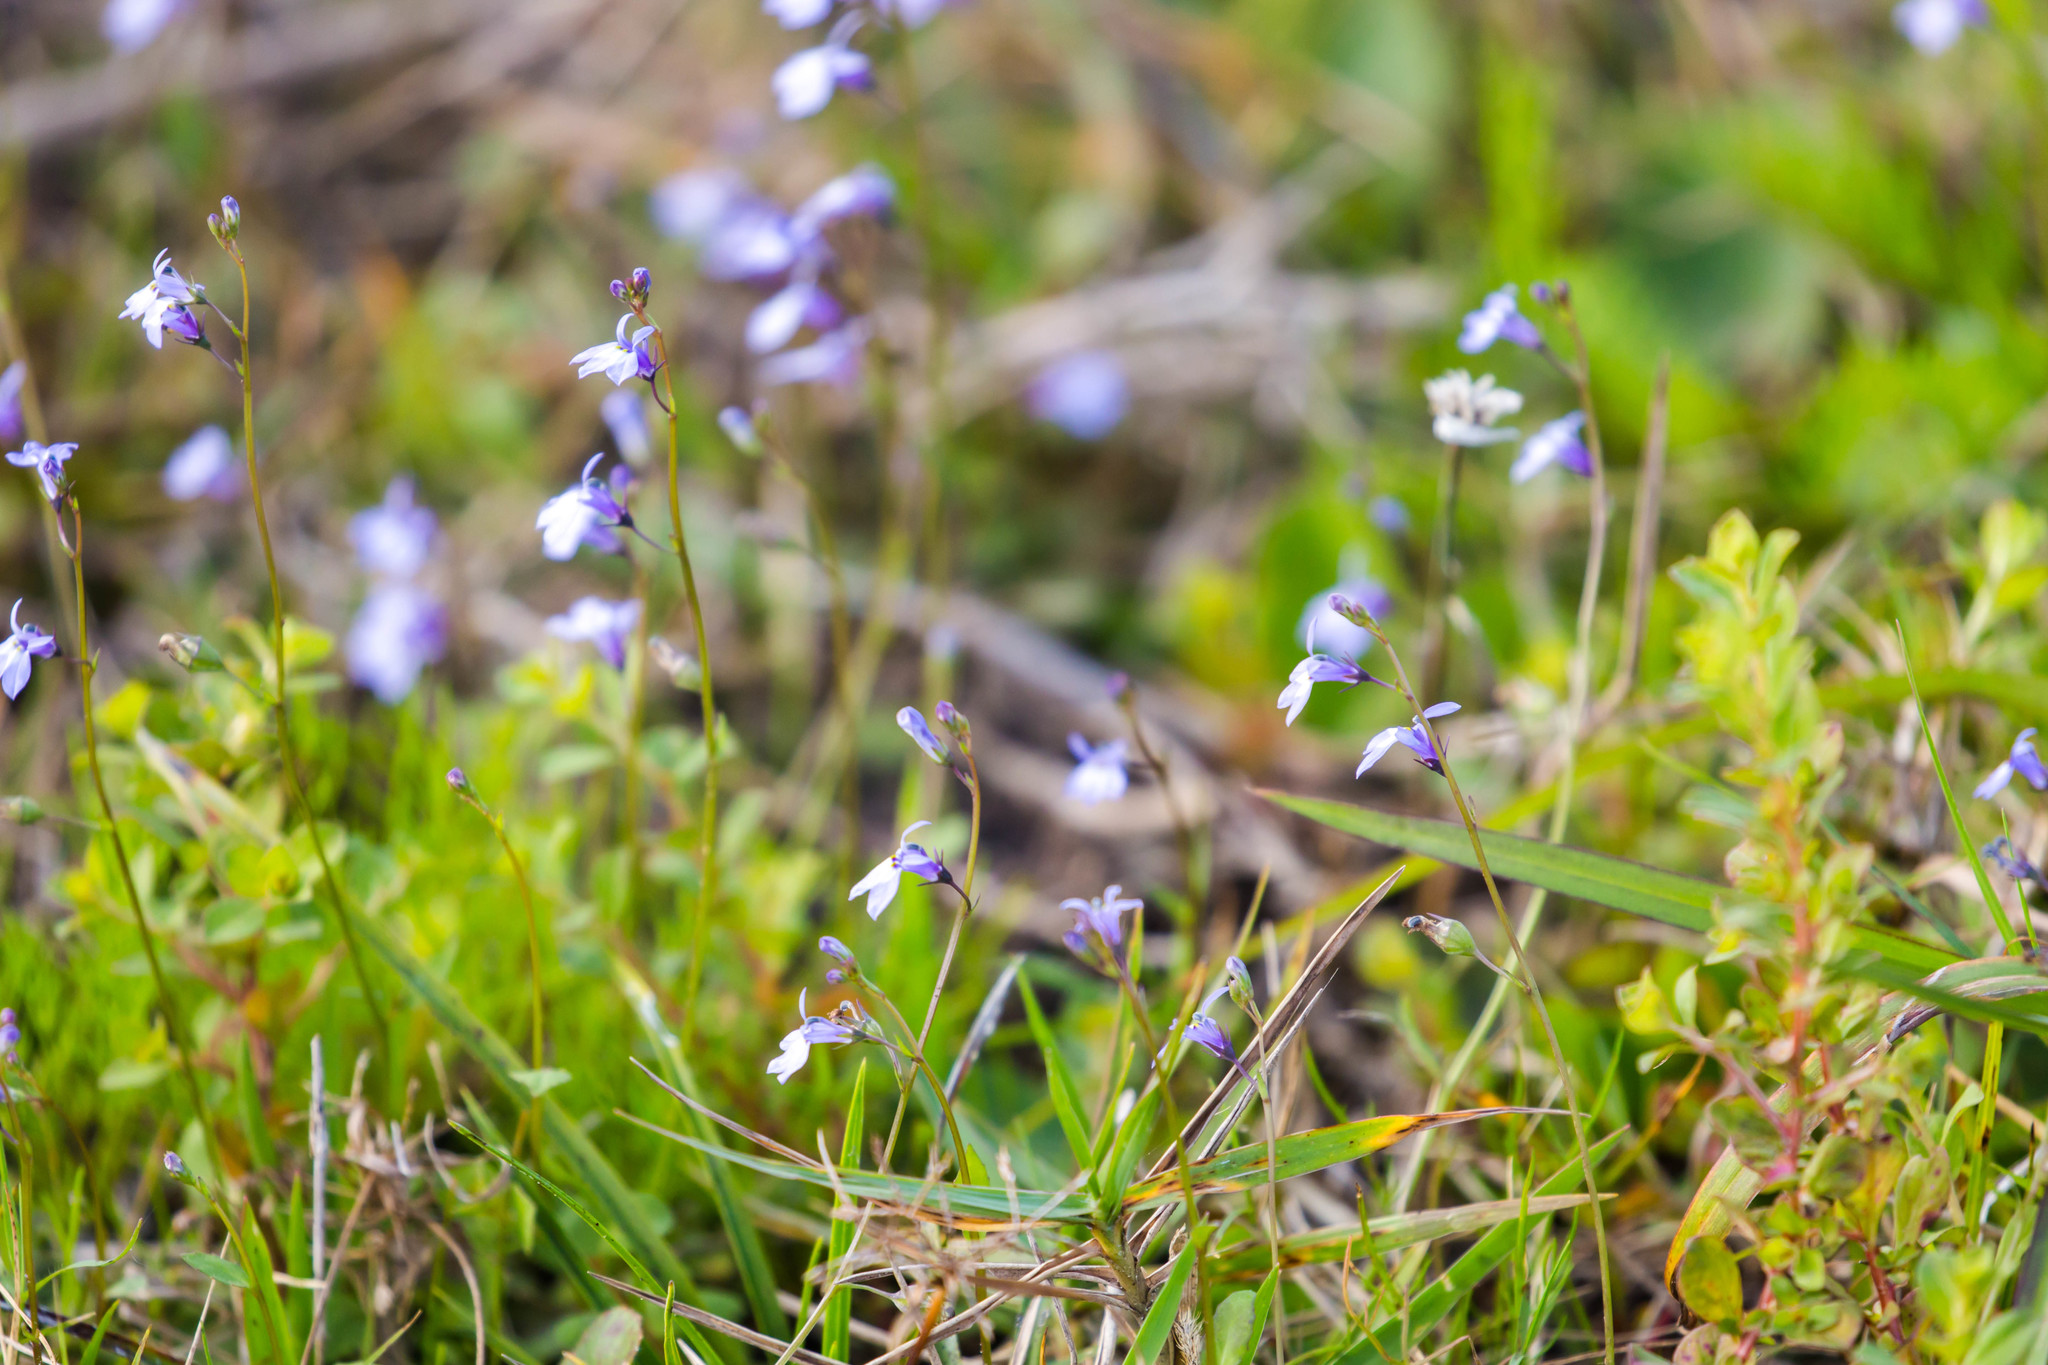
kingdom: Plantae
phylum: Tracheophyta
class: Magnoliopsida
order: Asterales
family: Campanulaceae
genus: Lobelia
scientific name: Lobelia feayana
